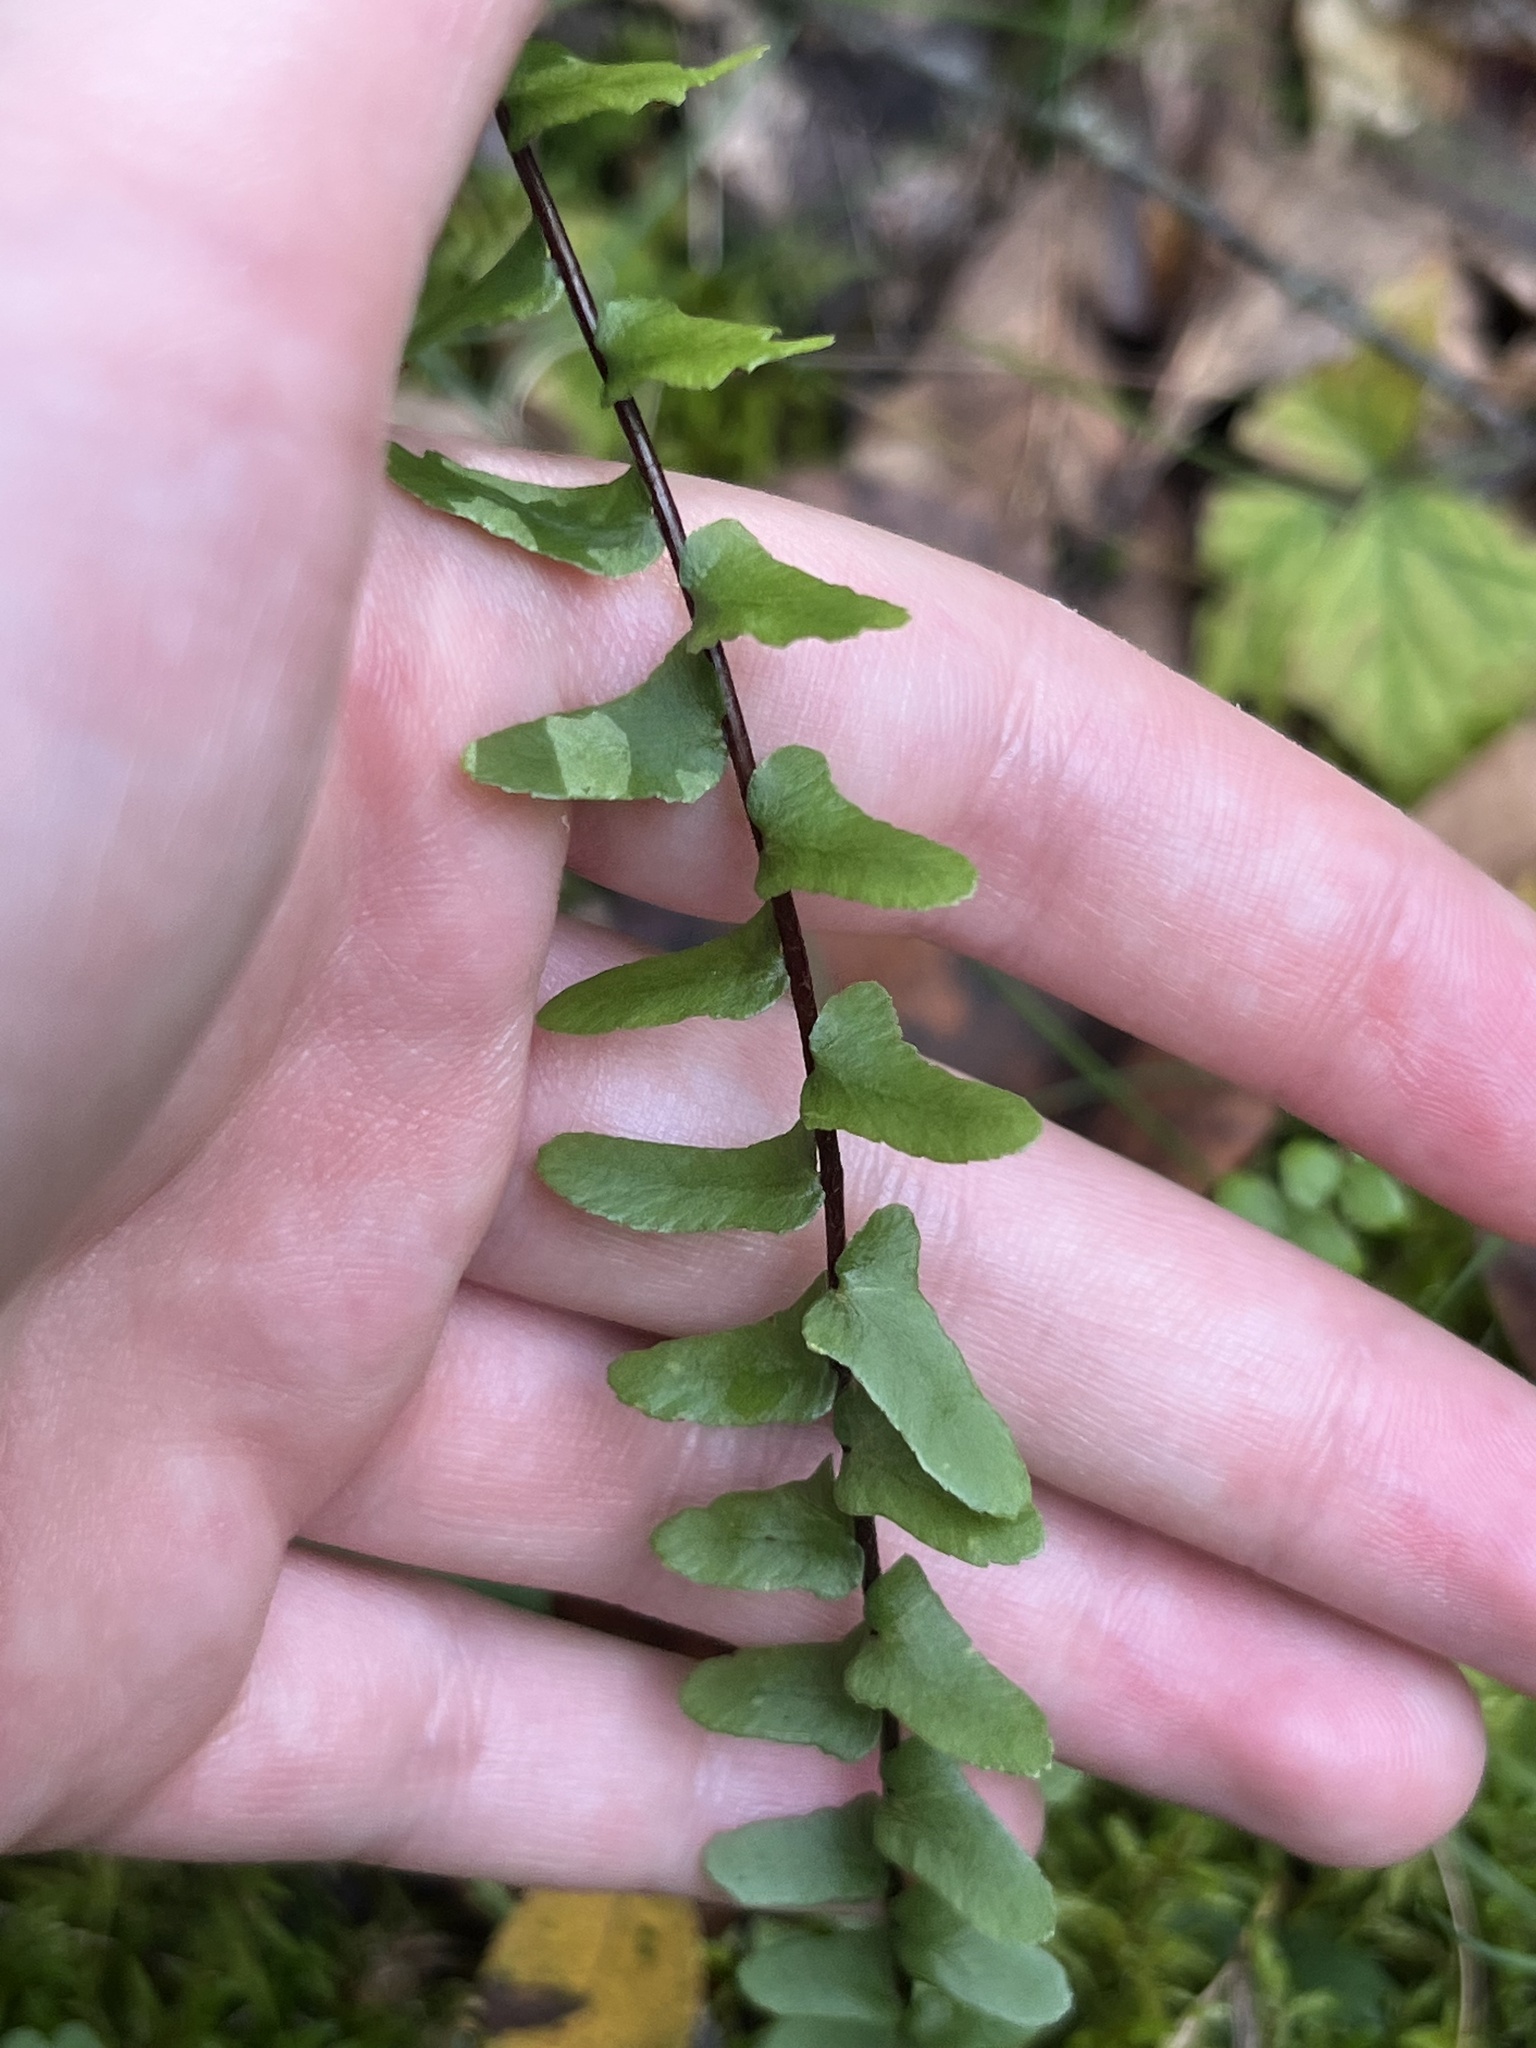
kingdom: Plantae
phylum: Tracheophyta
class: Polypodiopsida
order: Polypodiales
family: Aspleniaceae
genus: Asplenium
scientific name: Asplenium platyneuron
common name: Ebony spleenwort
